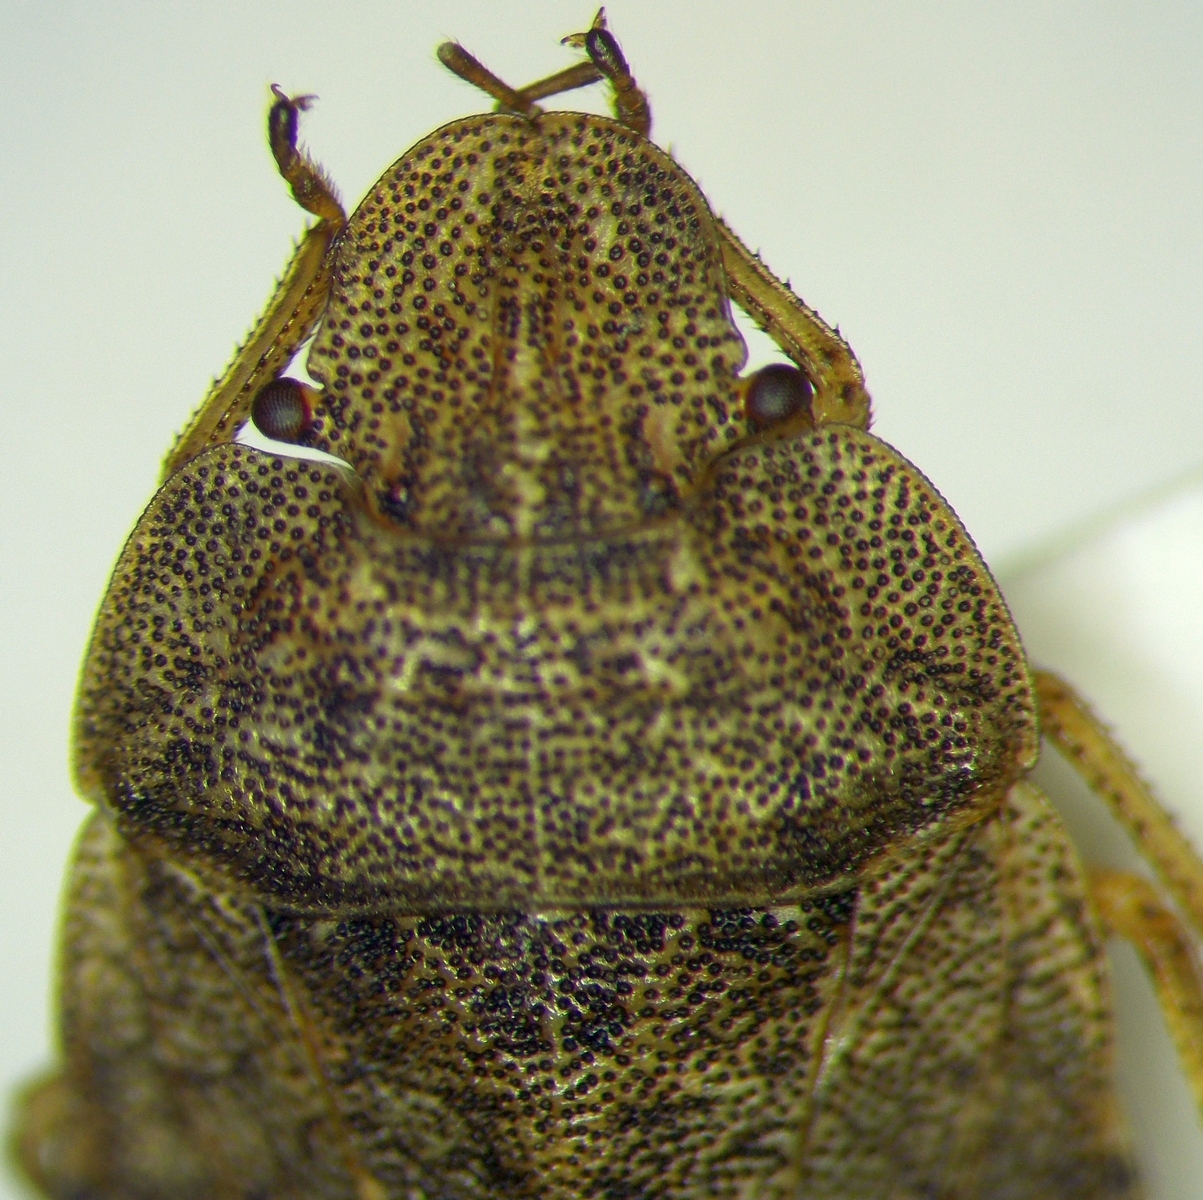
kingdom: Animalia
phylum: Arthropoda
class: Insecta
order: Hemiptera
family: Pentatomidae
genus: Sciocoris
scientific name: Sciocoris macrocephalus
